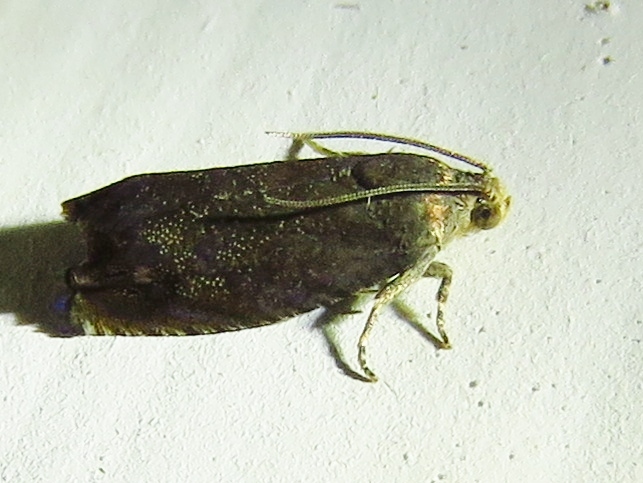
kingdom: Animalia
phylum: Arthropoda
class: Insecta
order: Lepidoptera
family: Tortricidae
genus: Cydia
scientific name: Cydia caryana
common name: Hickory shuckworm moth
